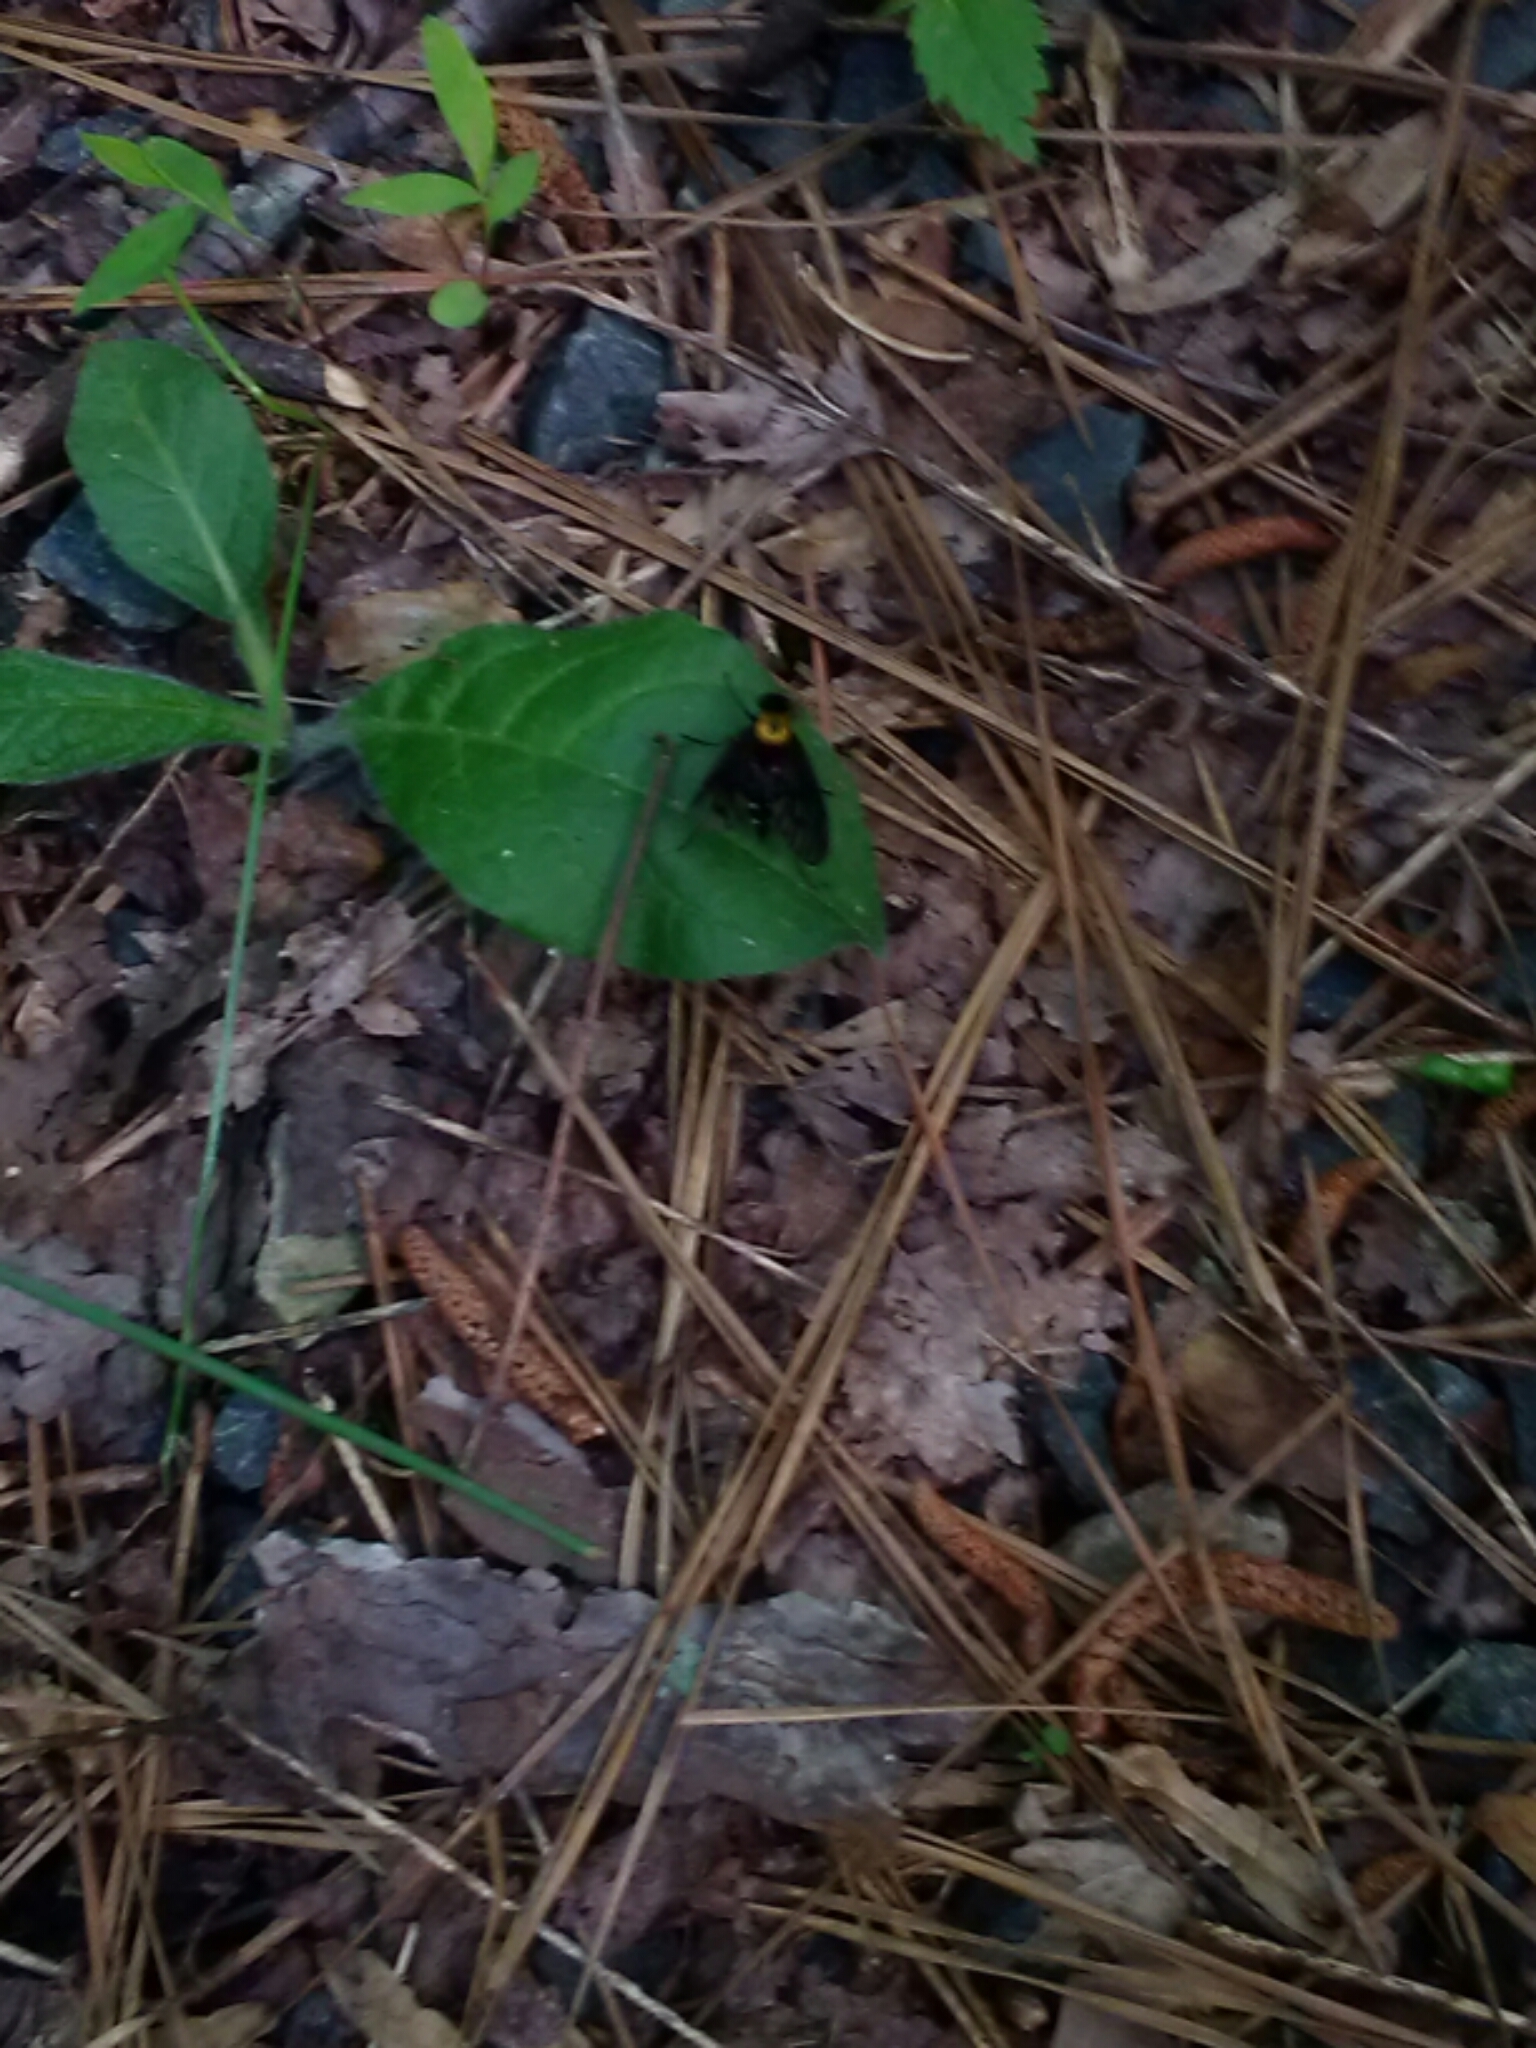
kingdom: Animalia
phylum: Arthropoda
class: Insecta
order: Diptera
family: Rhagionidae
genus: Chrysopilus
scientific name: Chrysopilus thoracicus
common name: Golden-backed snipe fly
